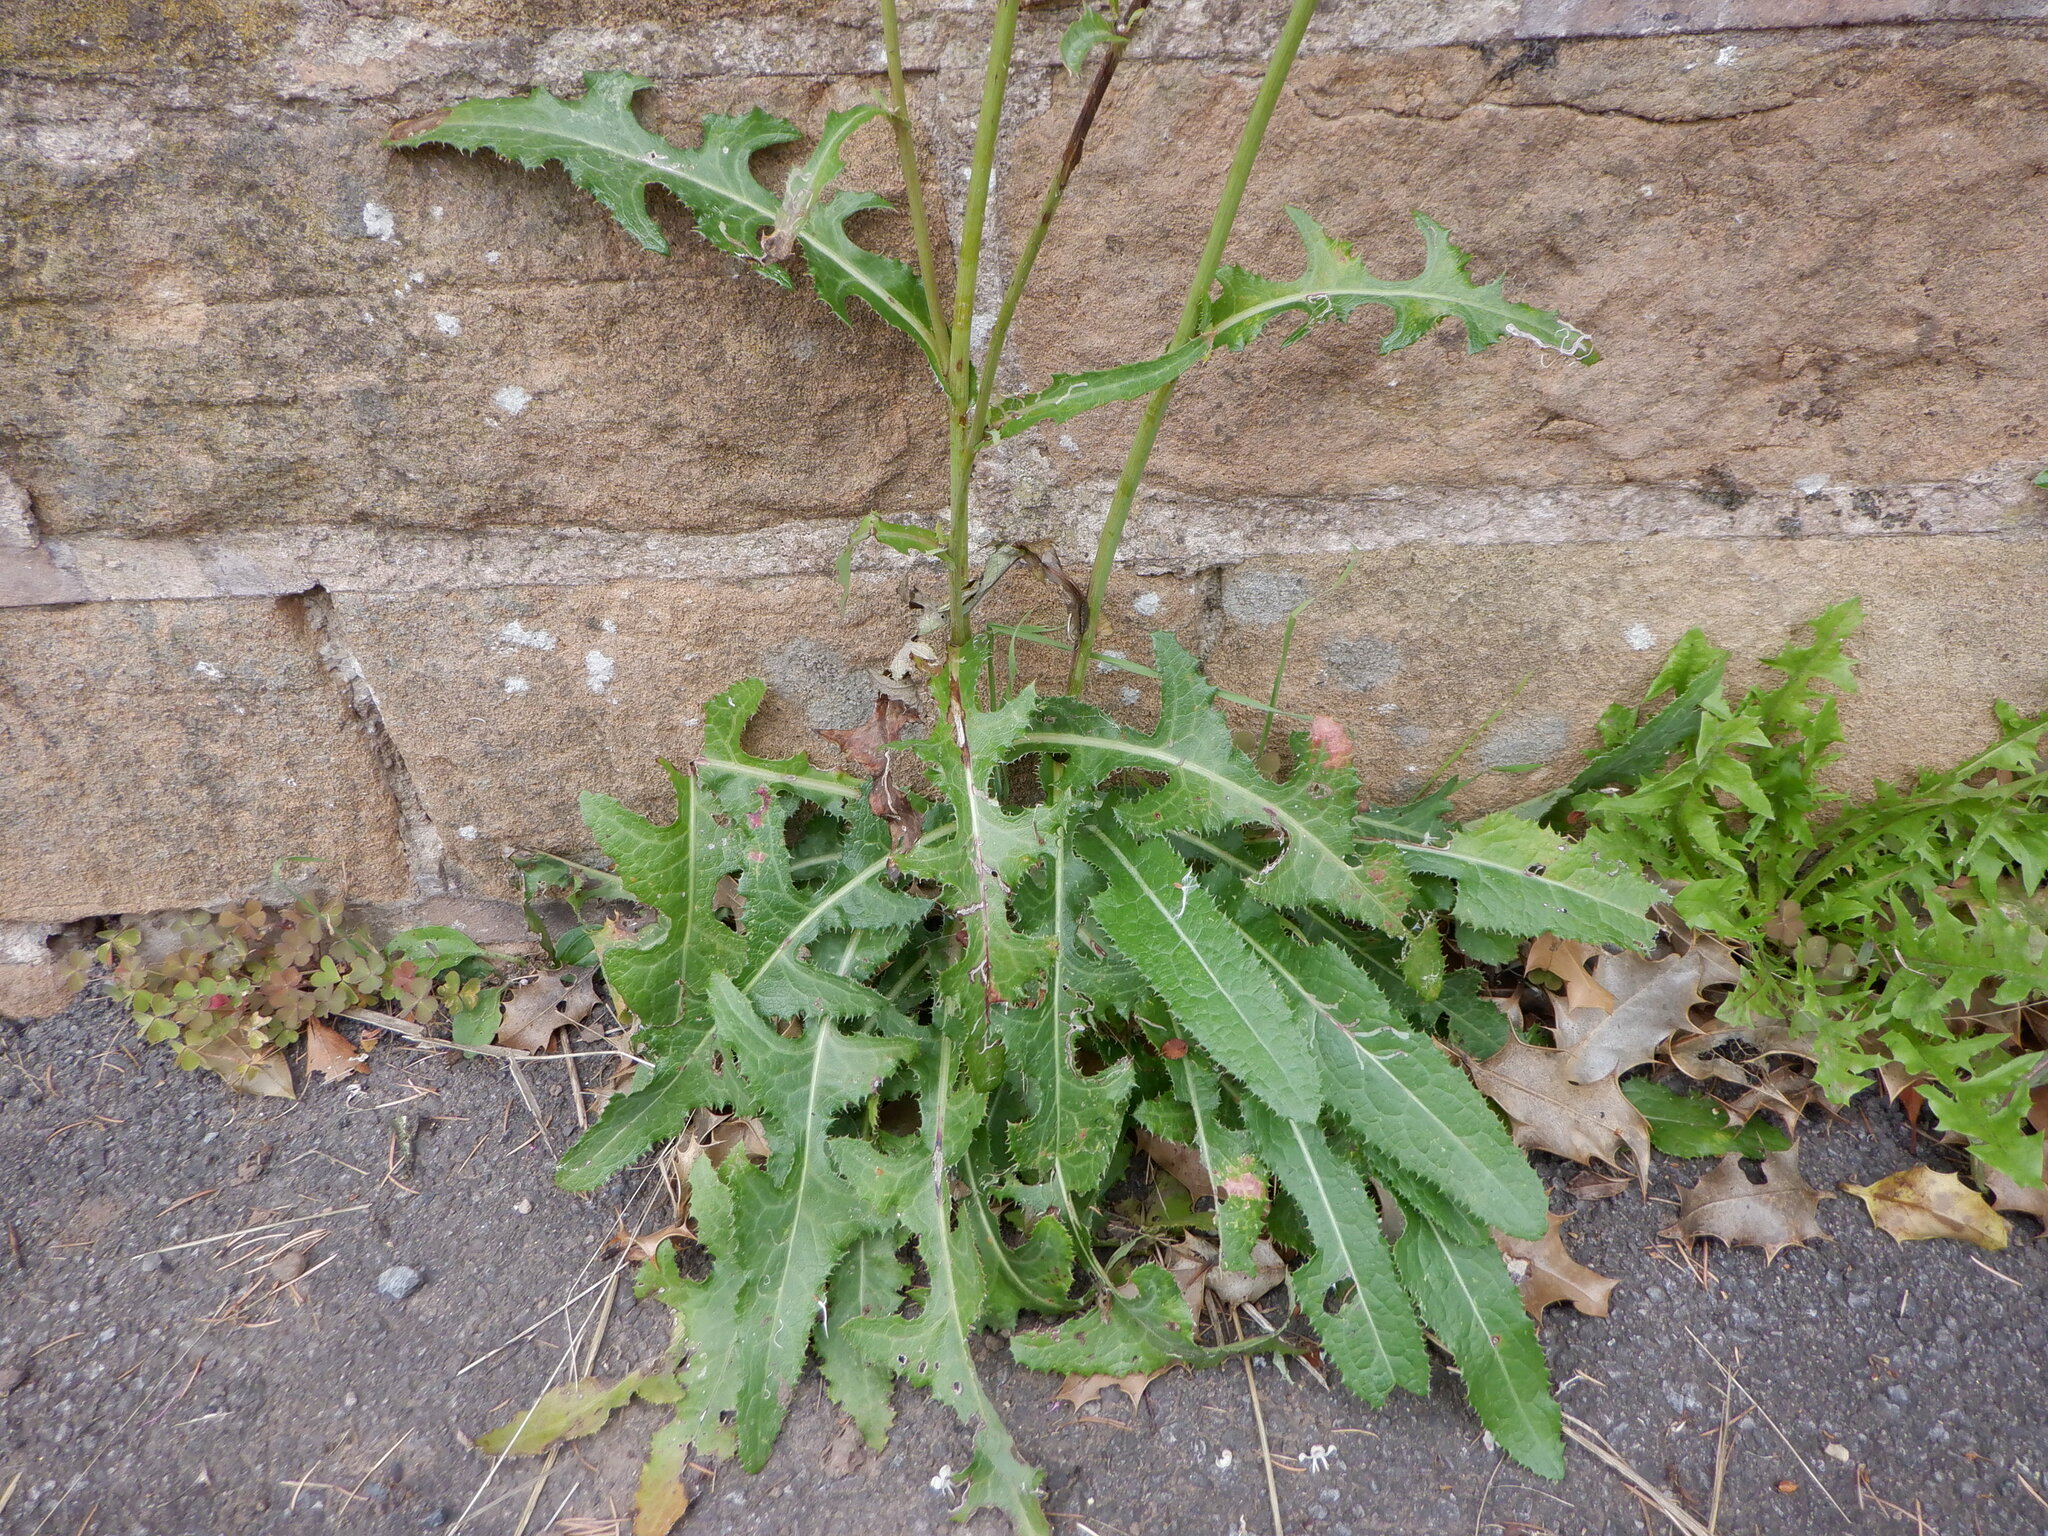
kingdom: Plantae
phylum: Tracheophyta
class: Magnoliopsida
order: Asterales
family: Asteraceae
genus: Sonchus
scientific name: Sonchus arvensis
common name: Perennial sow-thistle
